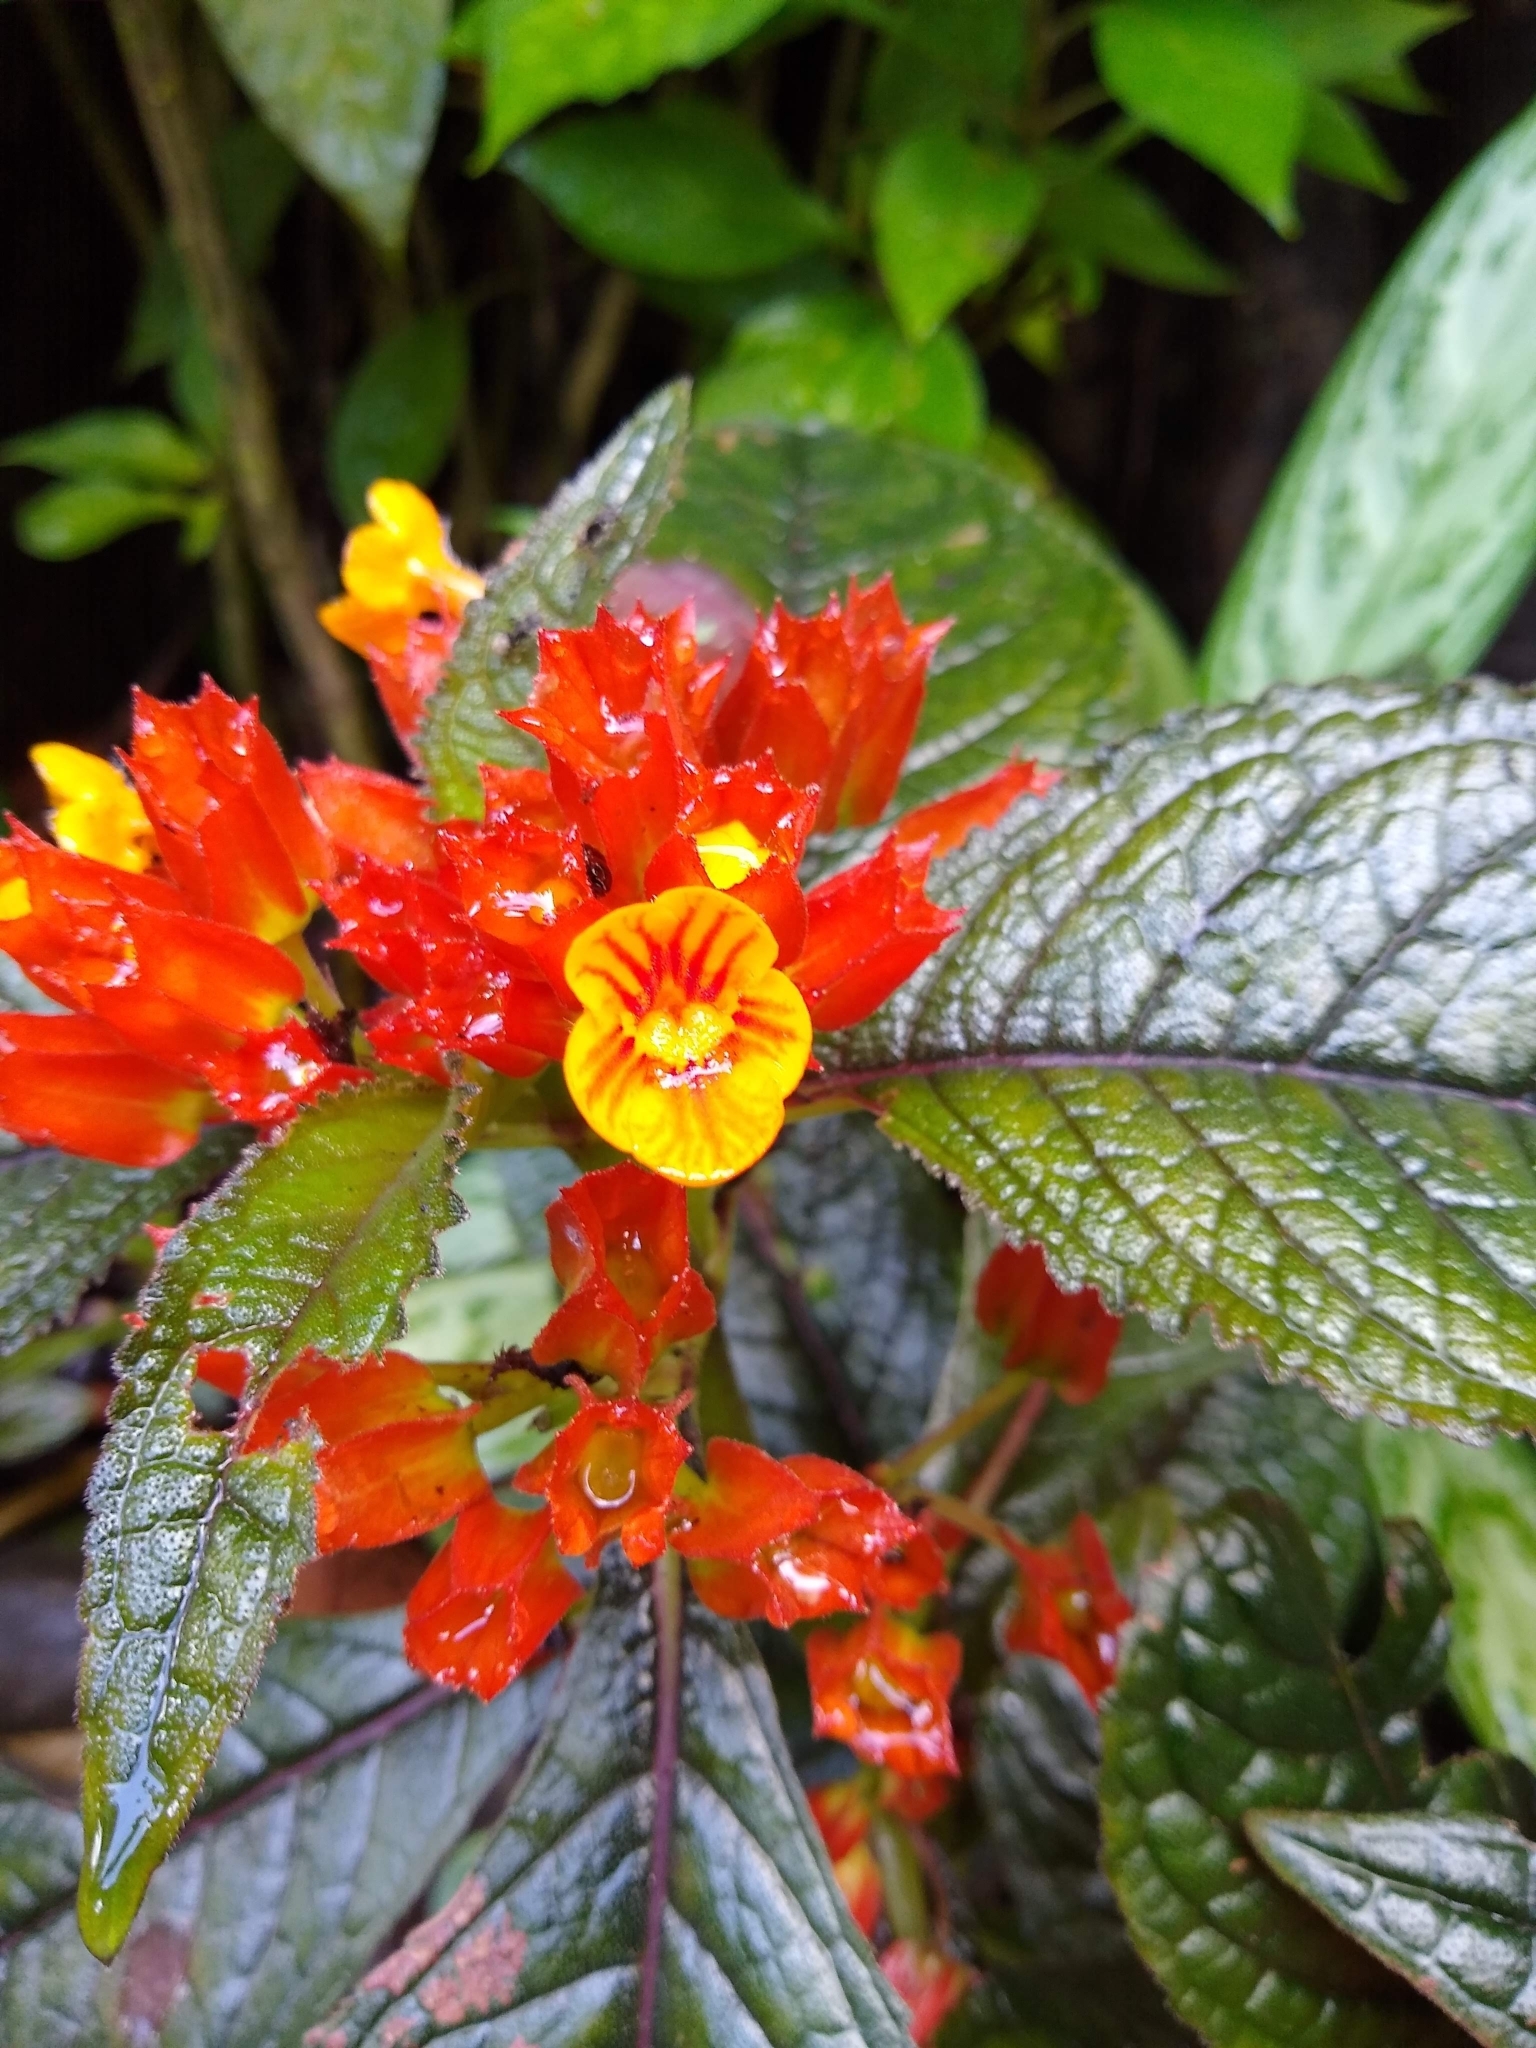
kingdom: Plantae
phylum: Tracheophyta
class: Magnoliopsida
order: Lamiales
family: Gesneriaceae
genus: Chrysothemis
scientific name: Chrysothemis pulchella
